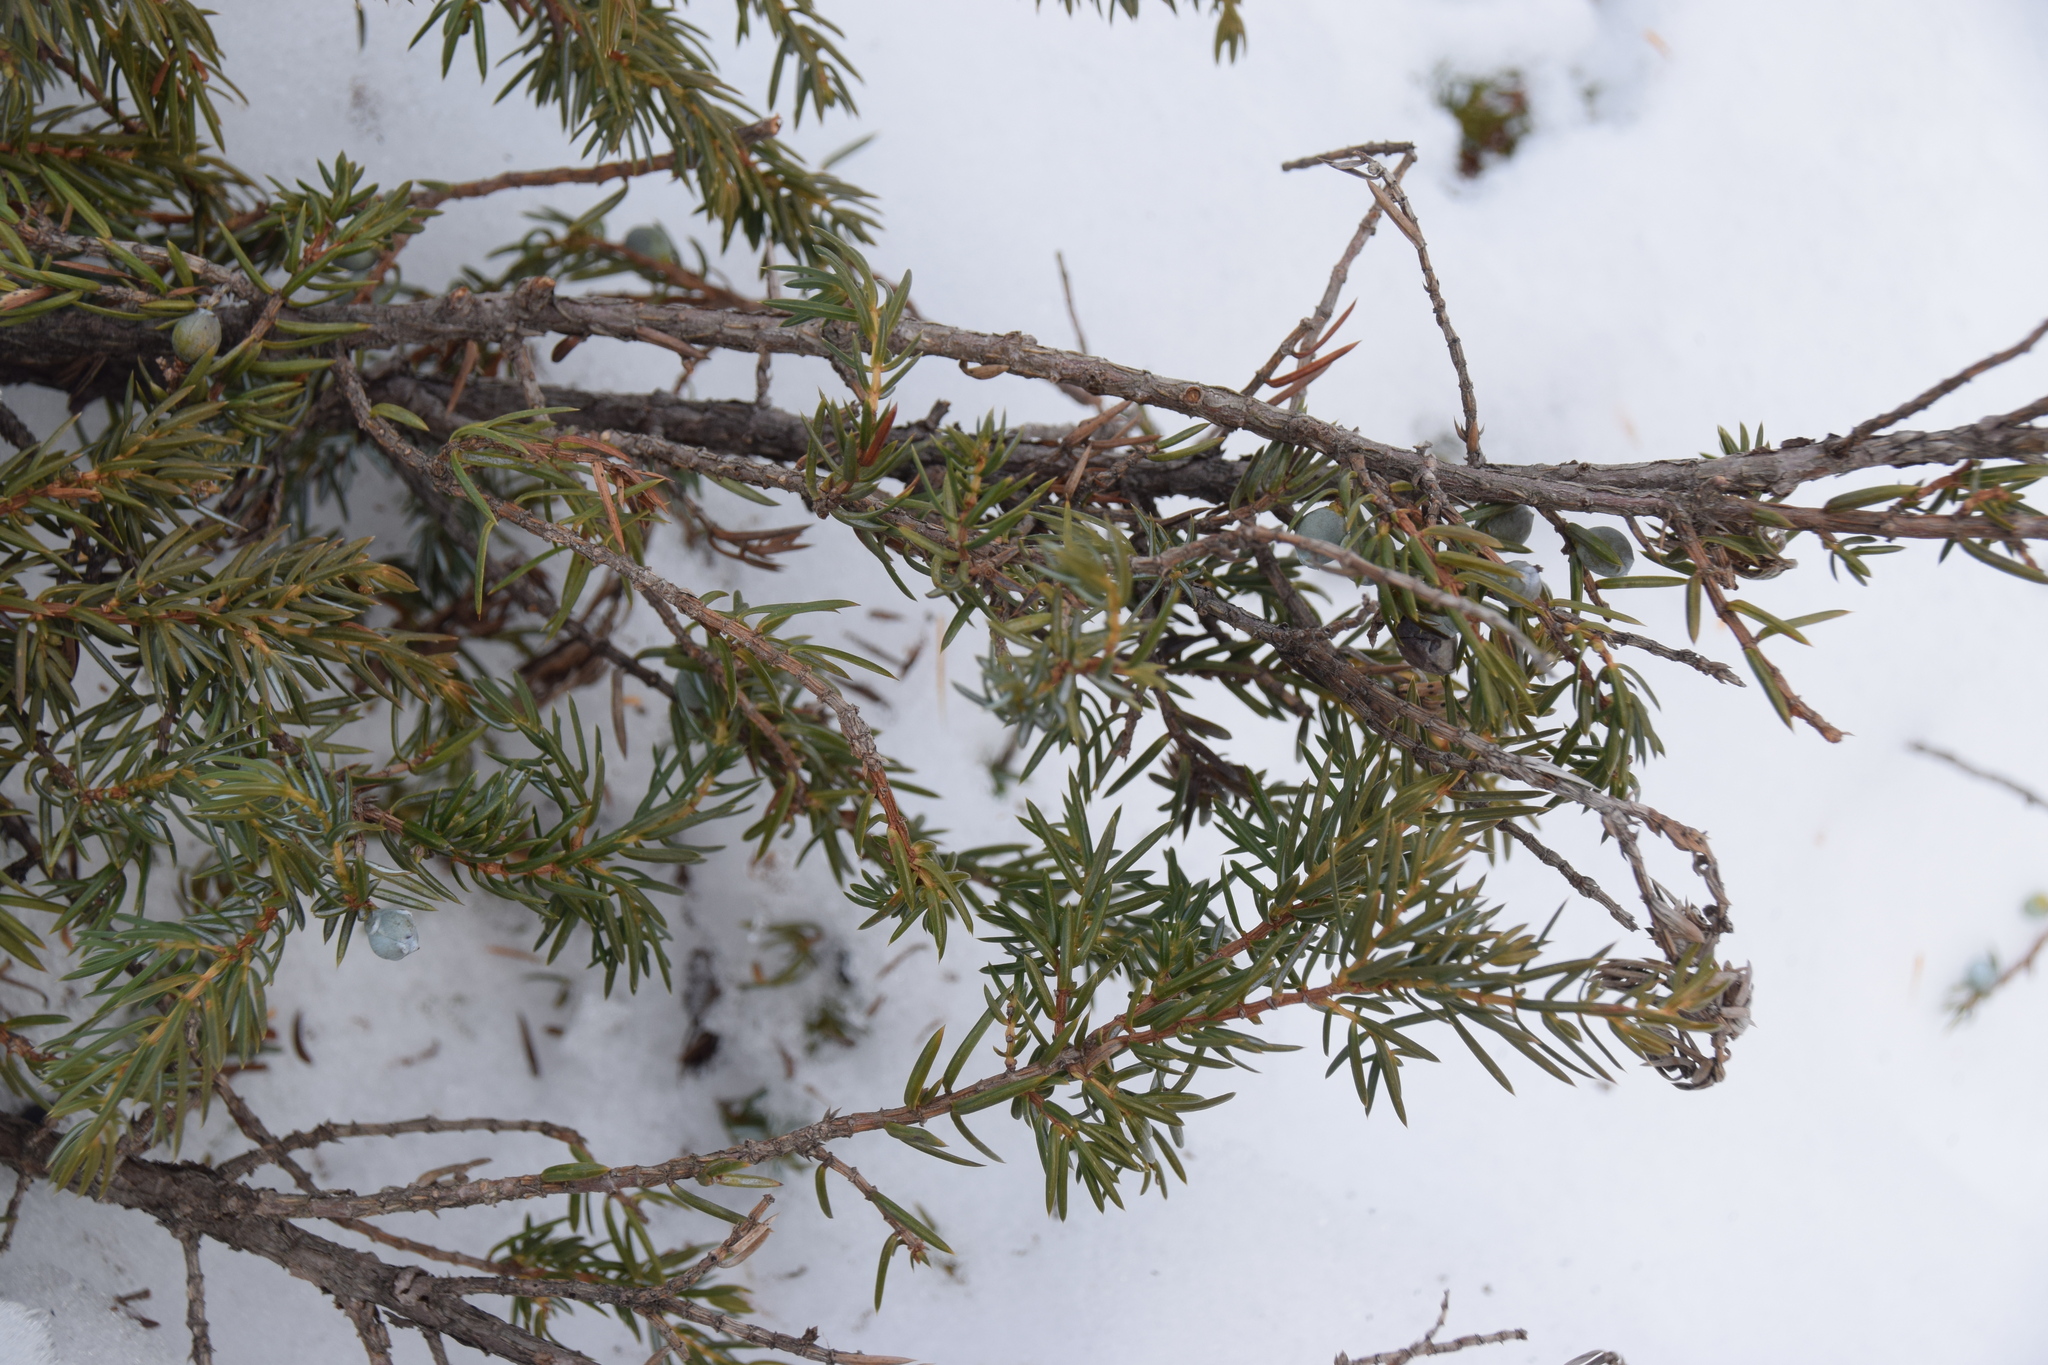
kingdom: Plantae
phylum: Tracheophyta
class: Pinopsida
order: Pinales
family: Cupressaceae
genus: Juniperus
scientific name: Juniperus communis
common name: Common juniper
